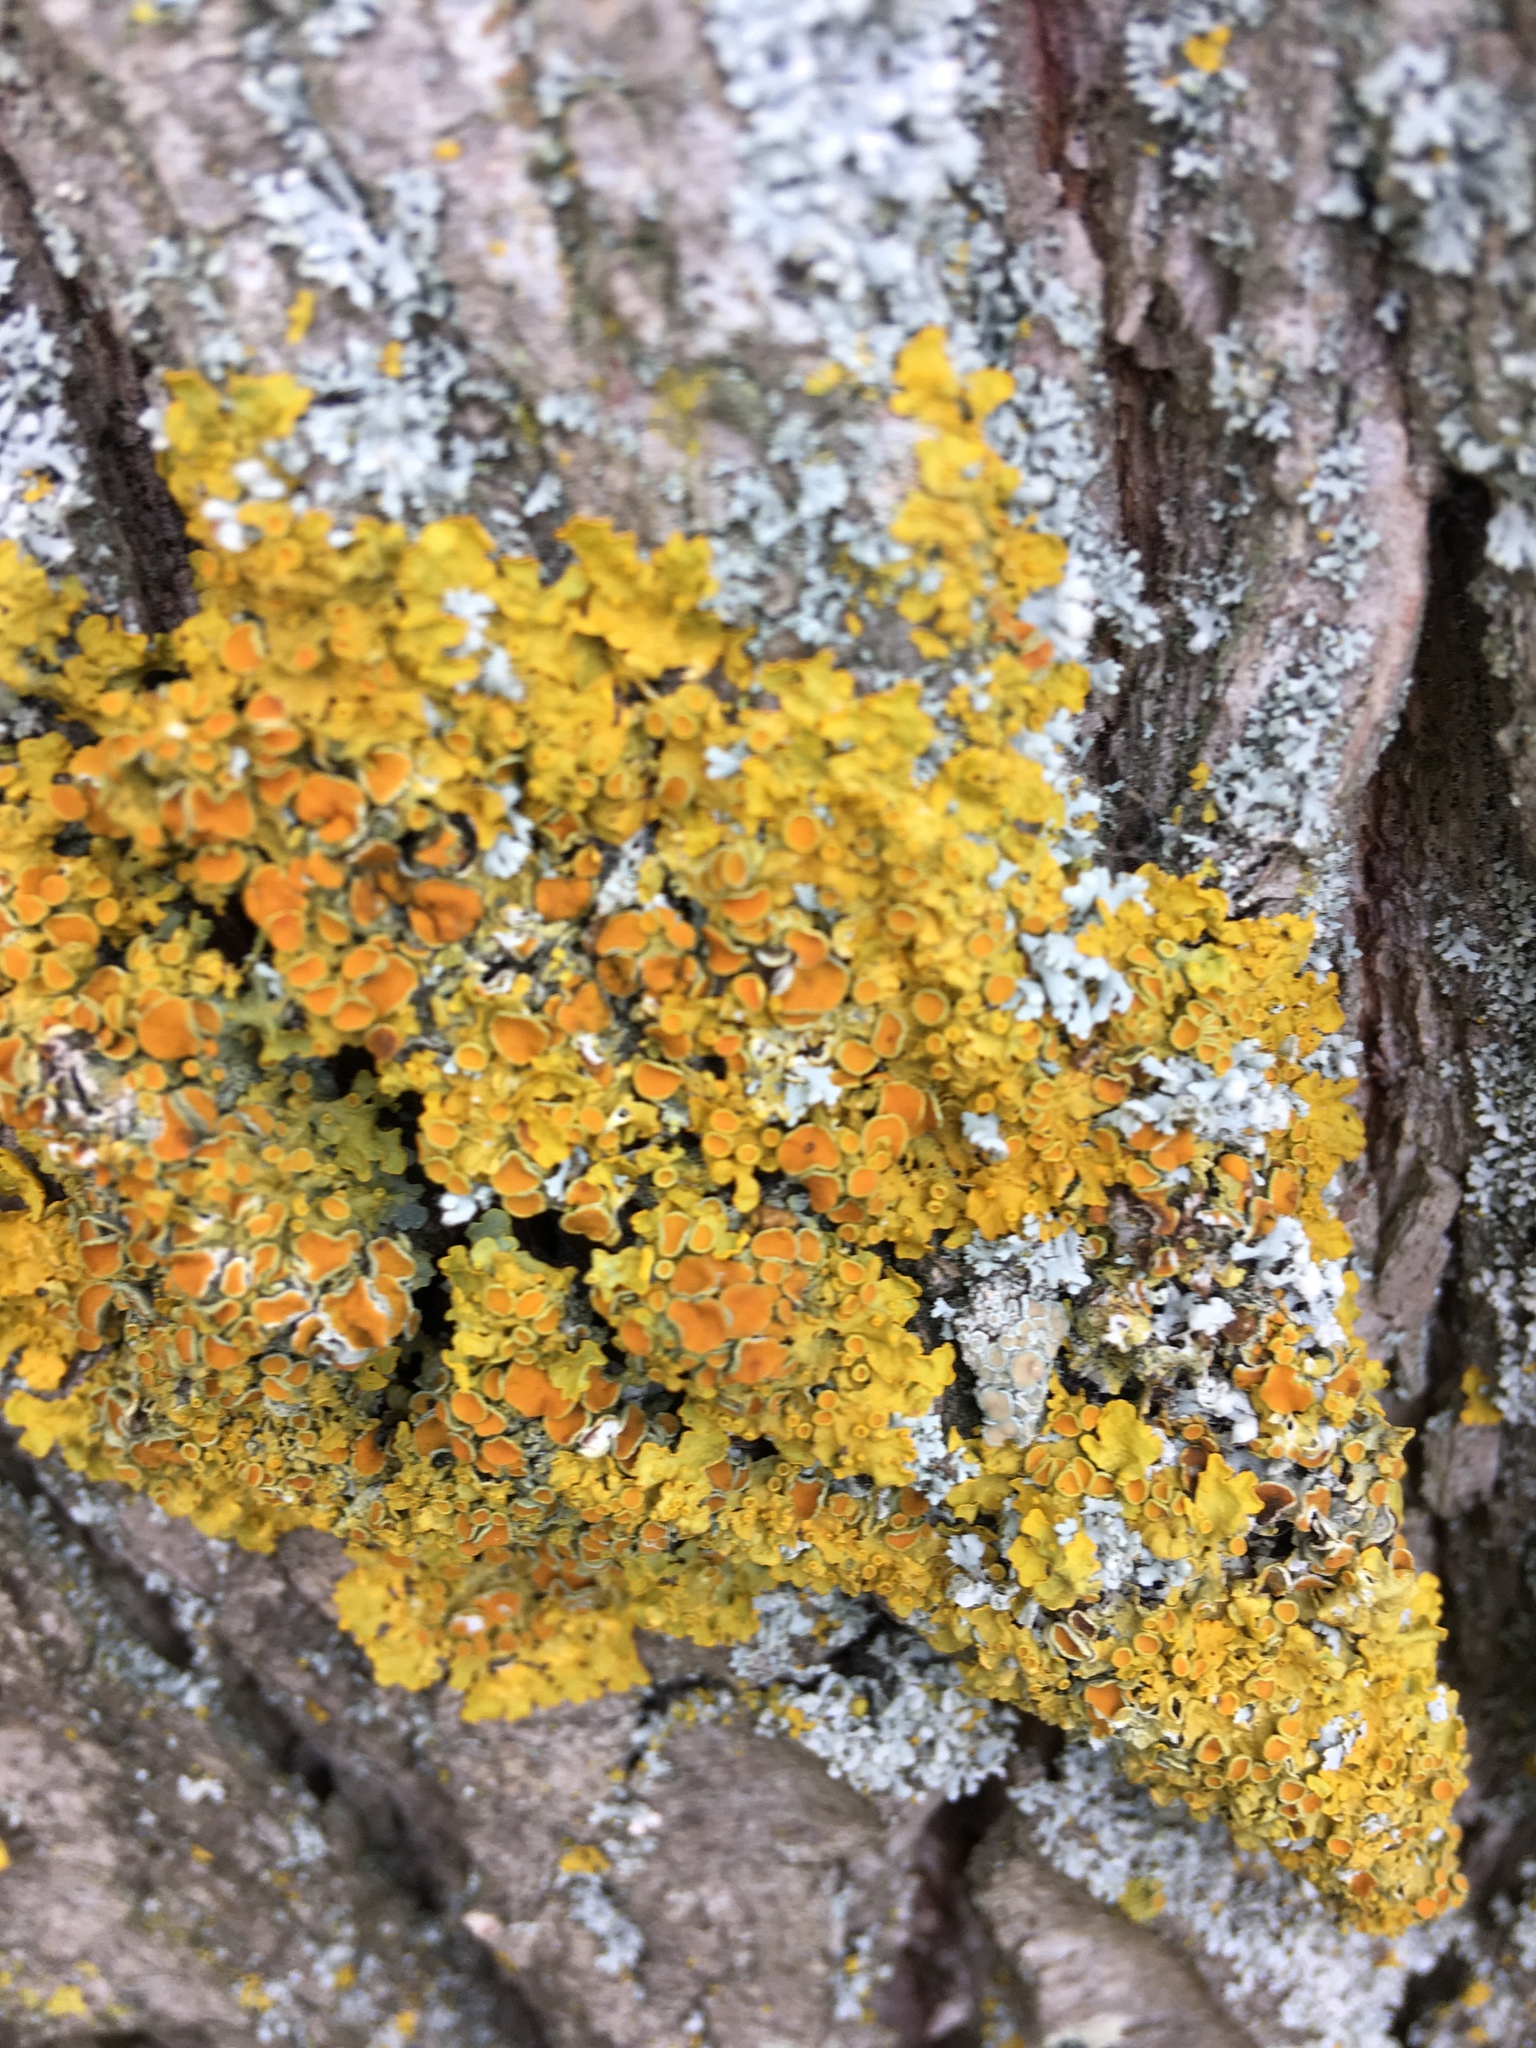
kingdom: Fungi
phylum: Ascomycota
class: Lecanoromycetes
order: Teloschistales
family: Teloschistaceae
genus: Xanthoria
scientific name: Xanthoria parietina
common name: Common orange lichen
